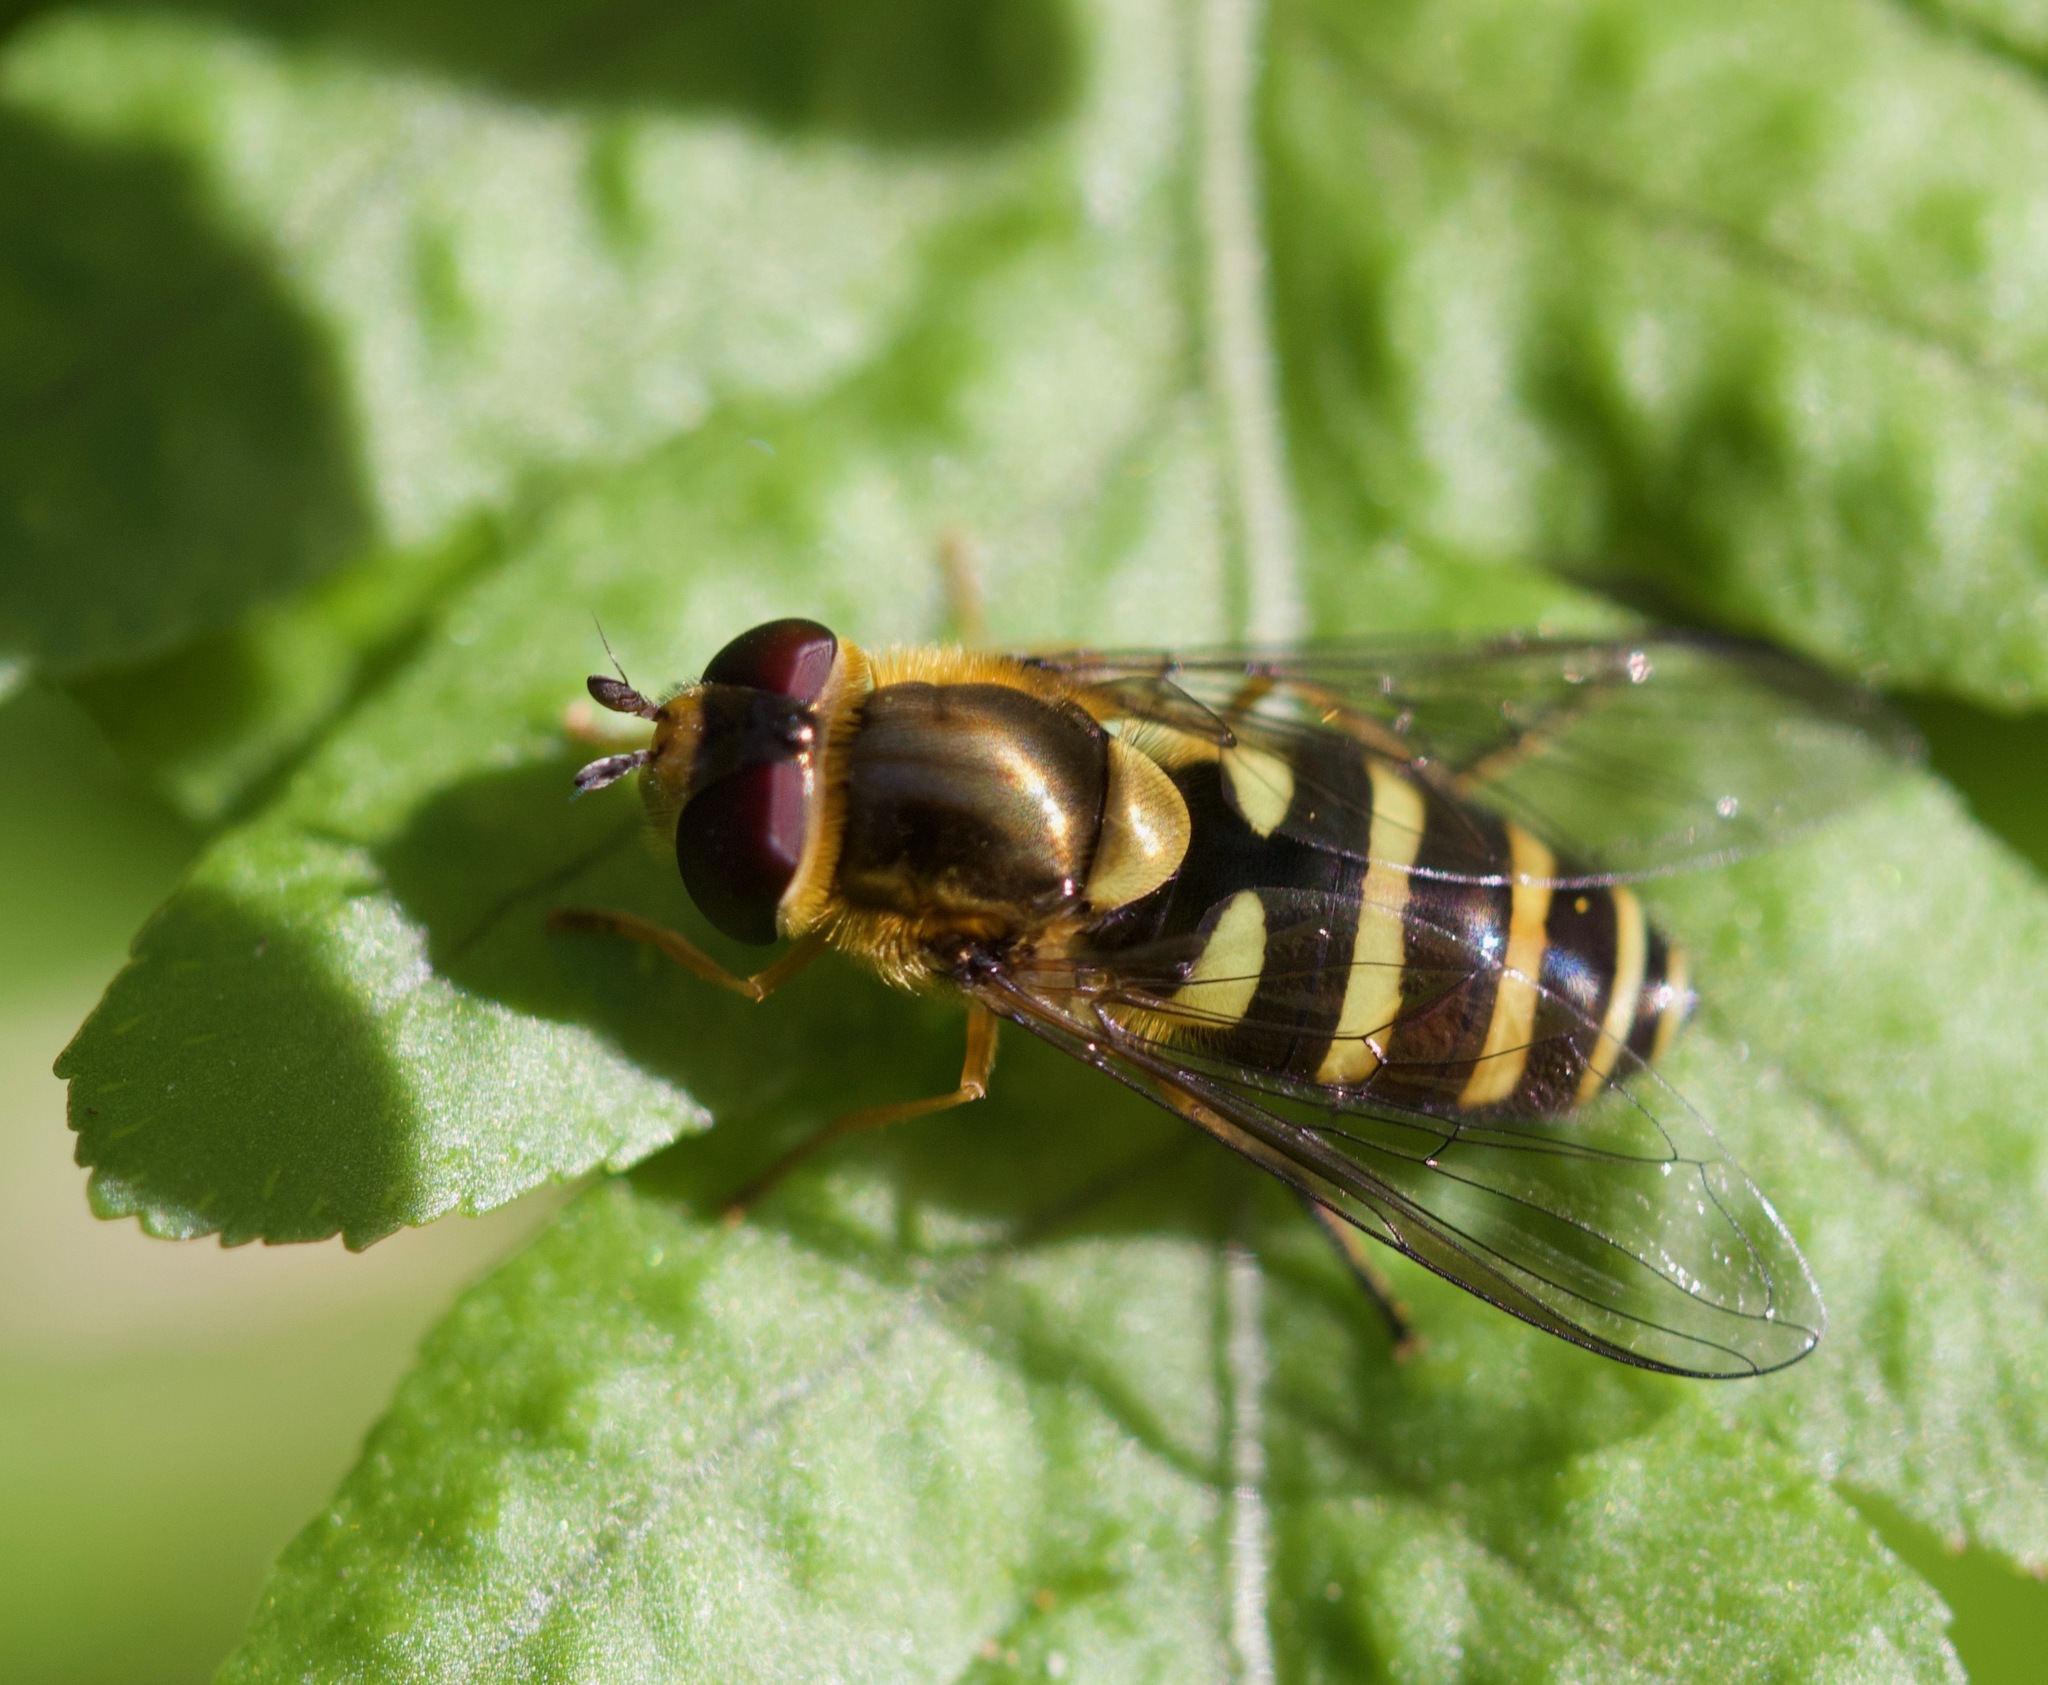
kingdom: Animalia
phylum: Arthropoda
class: Insecta
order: Diptera
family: Syrphidae
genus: Syrphus
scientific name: Syrphus opinator
